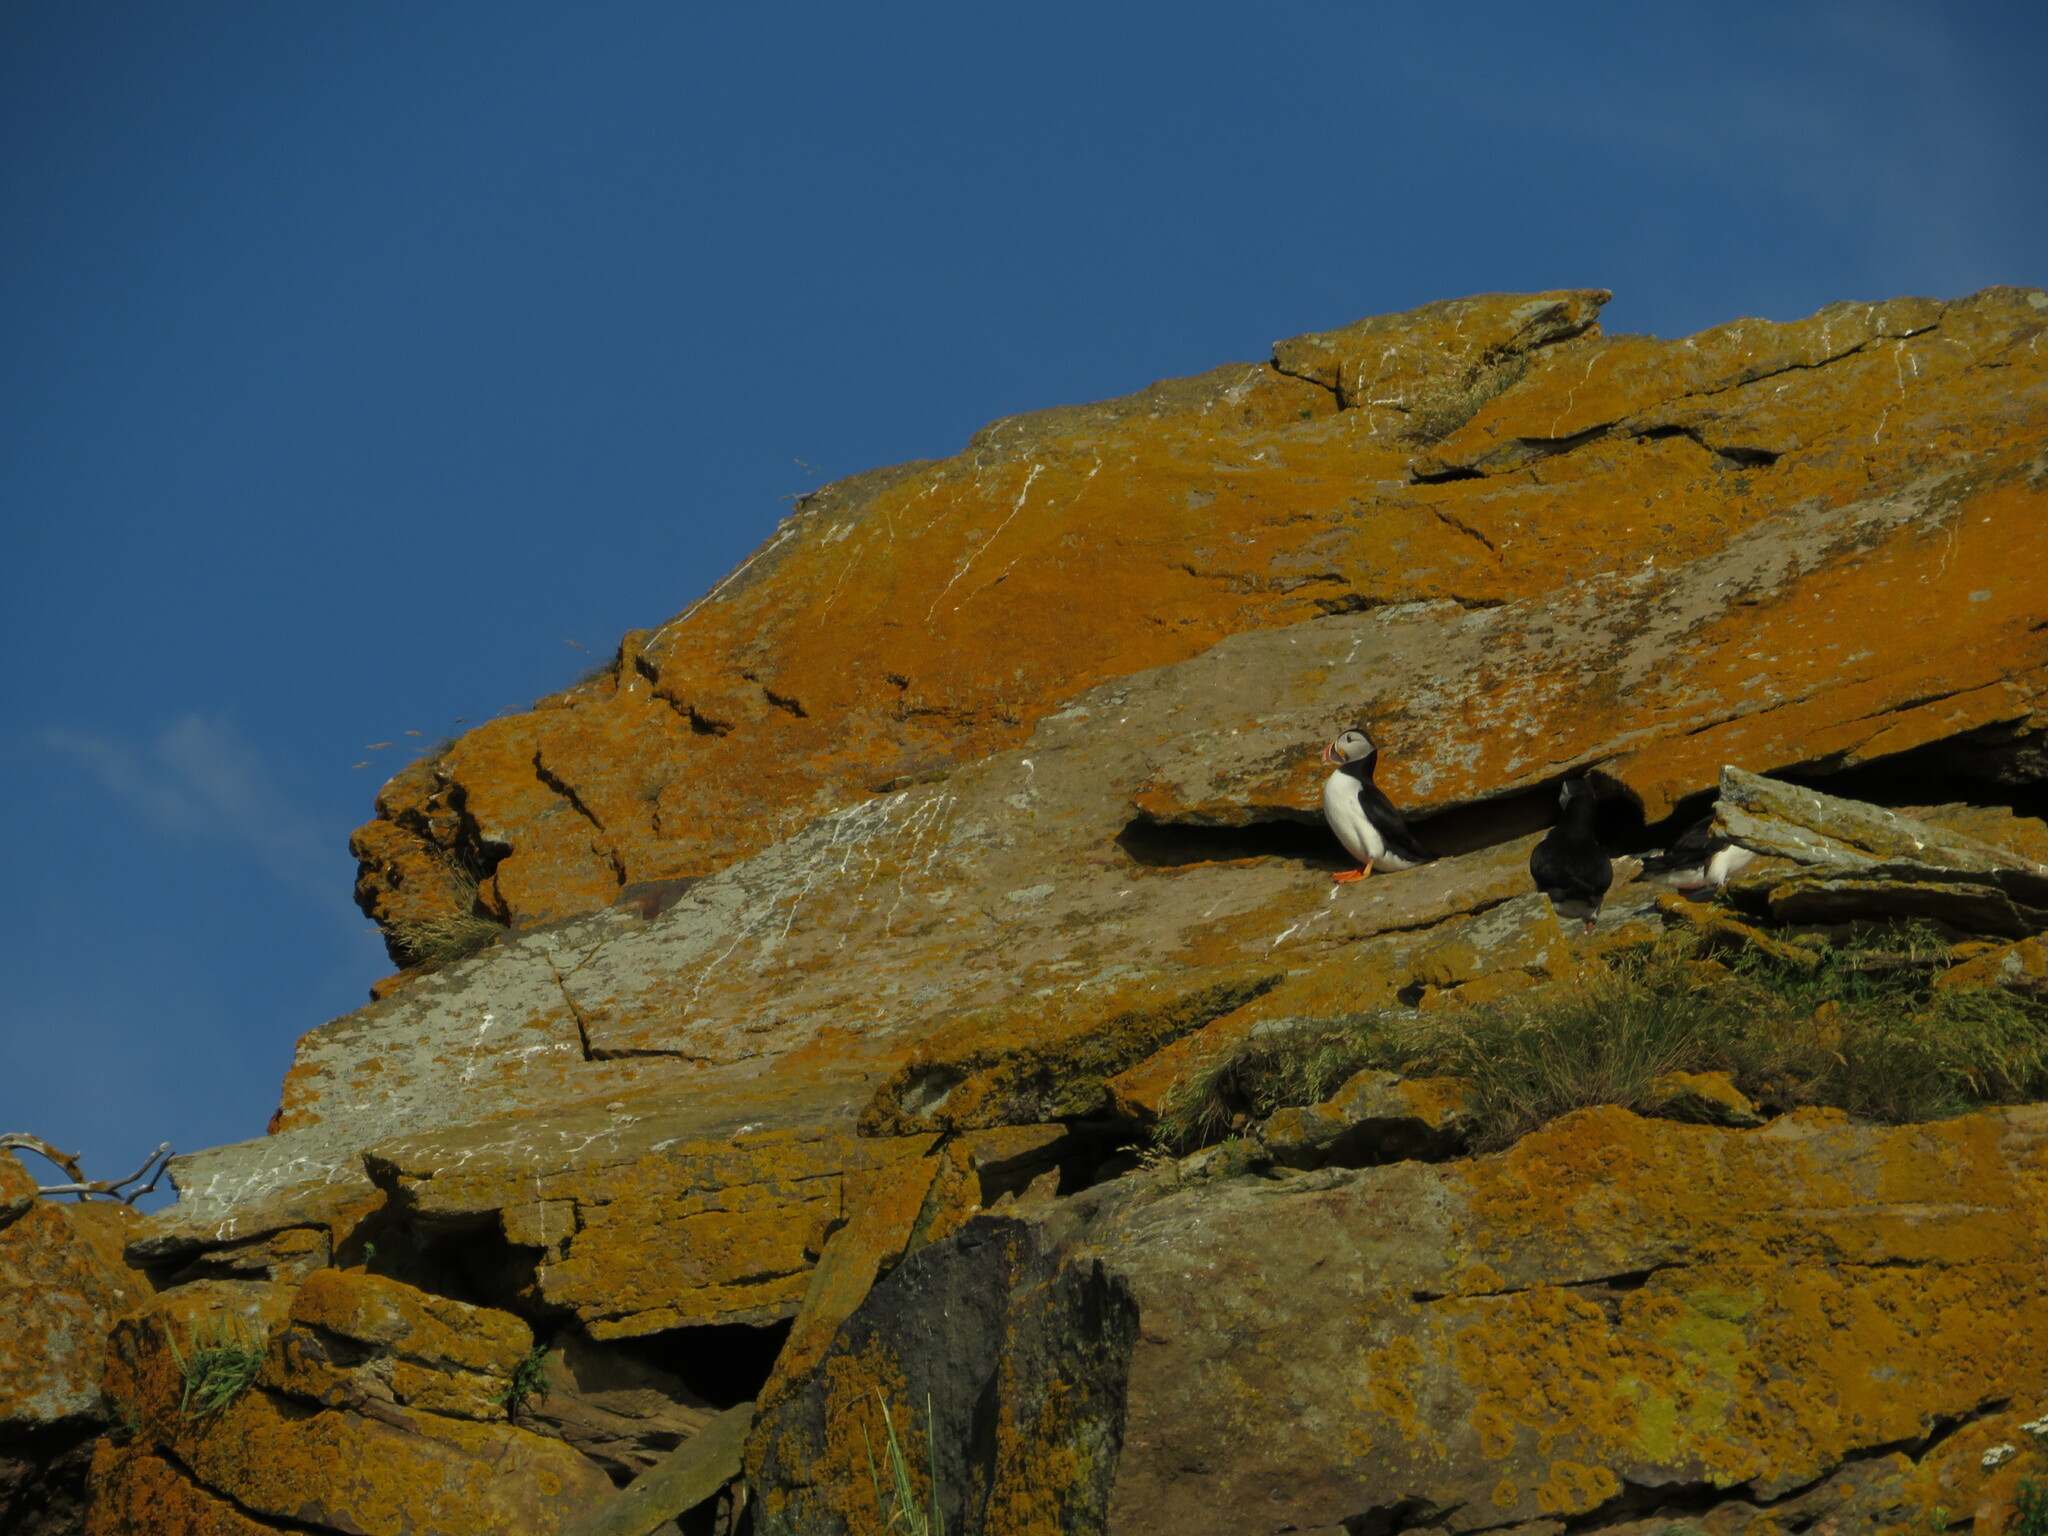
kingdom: Animalia
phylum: Chordata
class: Aves
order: Charadriiformes
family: Alcidae
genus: Fratercula
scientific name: Fratercula arctica
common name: Atlantic puffin
